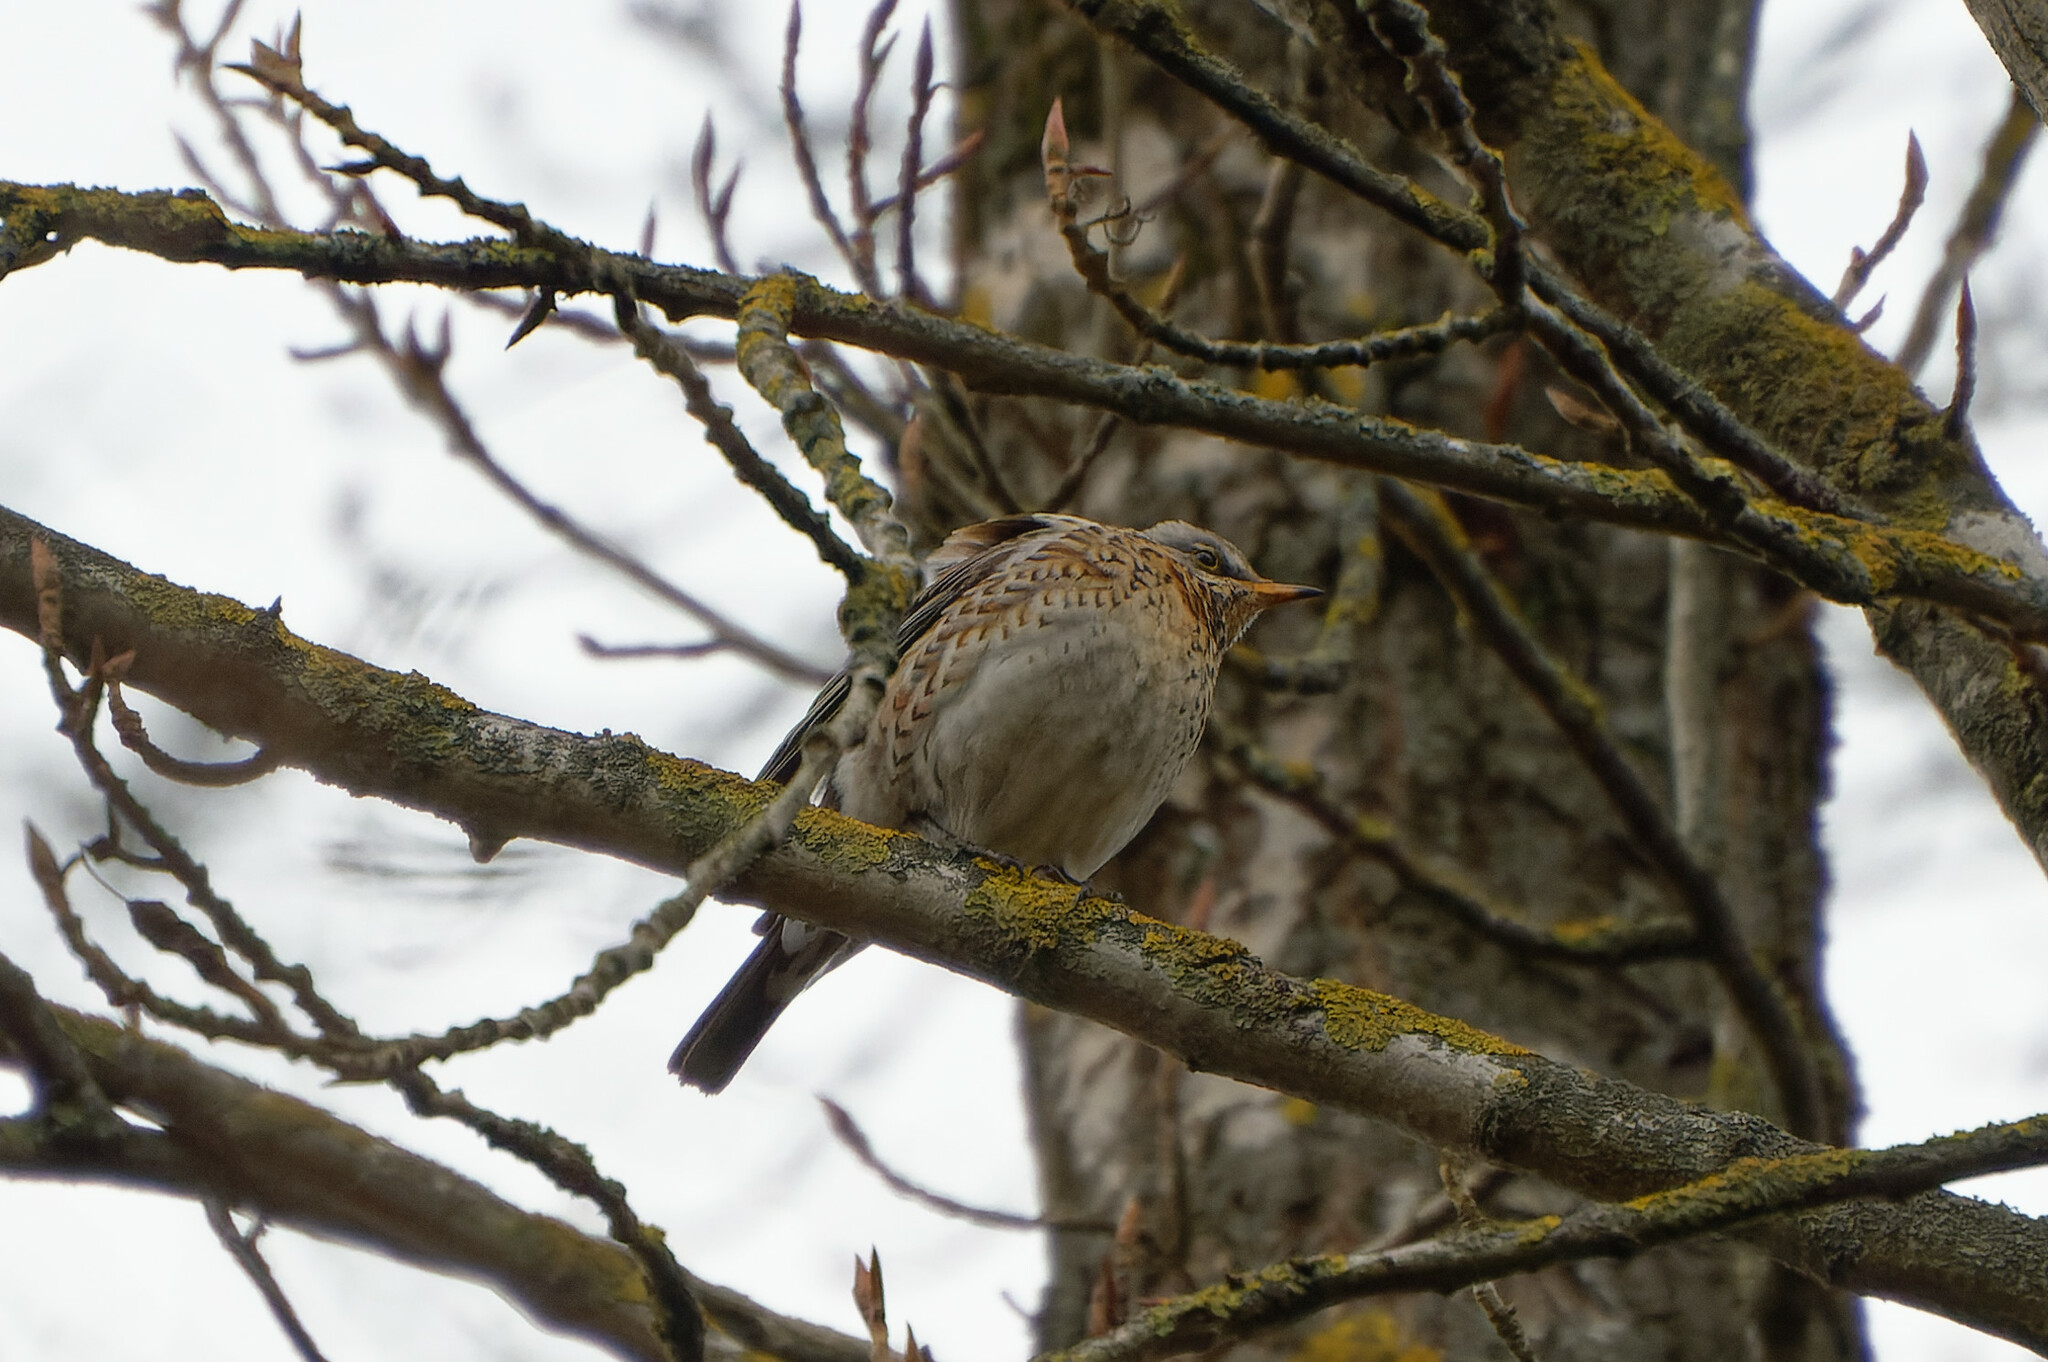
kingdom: Animalia
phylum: Chordata
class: Aves
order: Passeriformes
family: Turdidae
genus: Turdus
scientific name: Turdus pilaris
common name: Fieldfare
